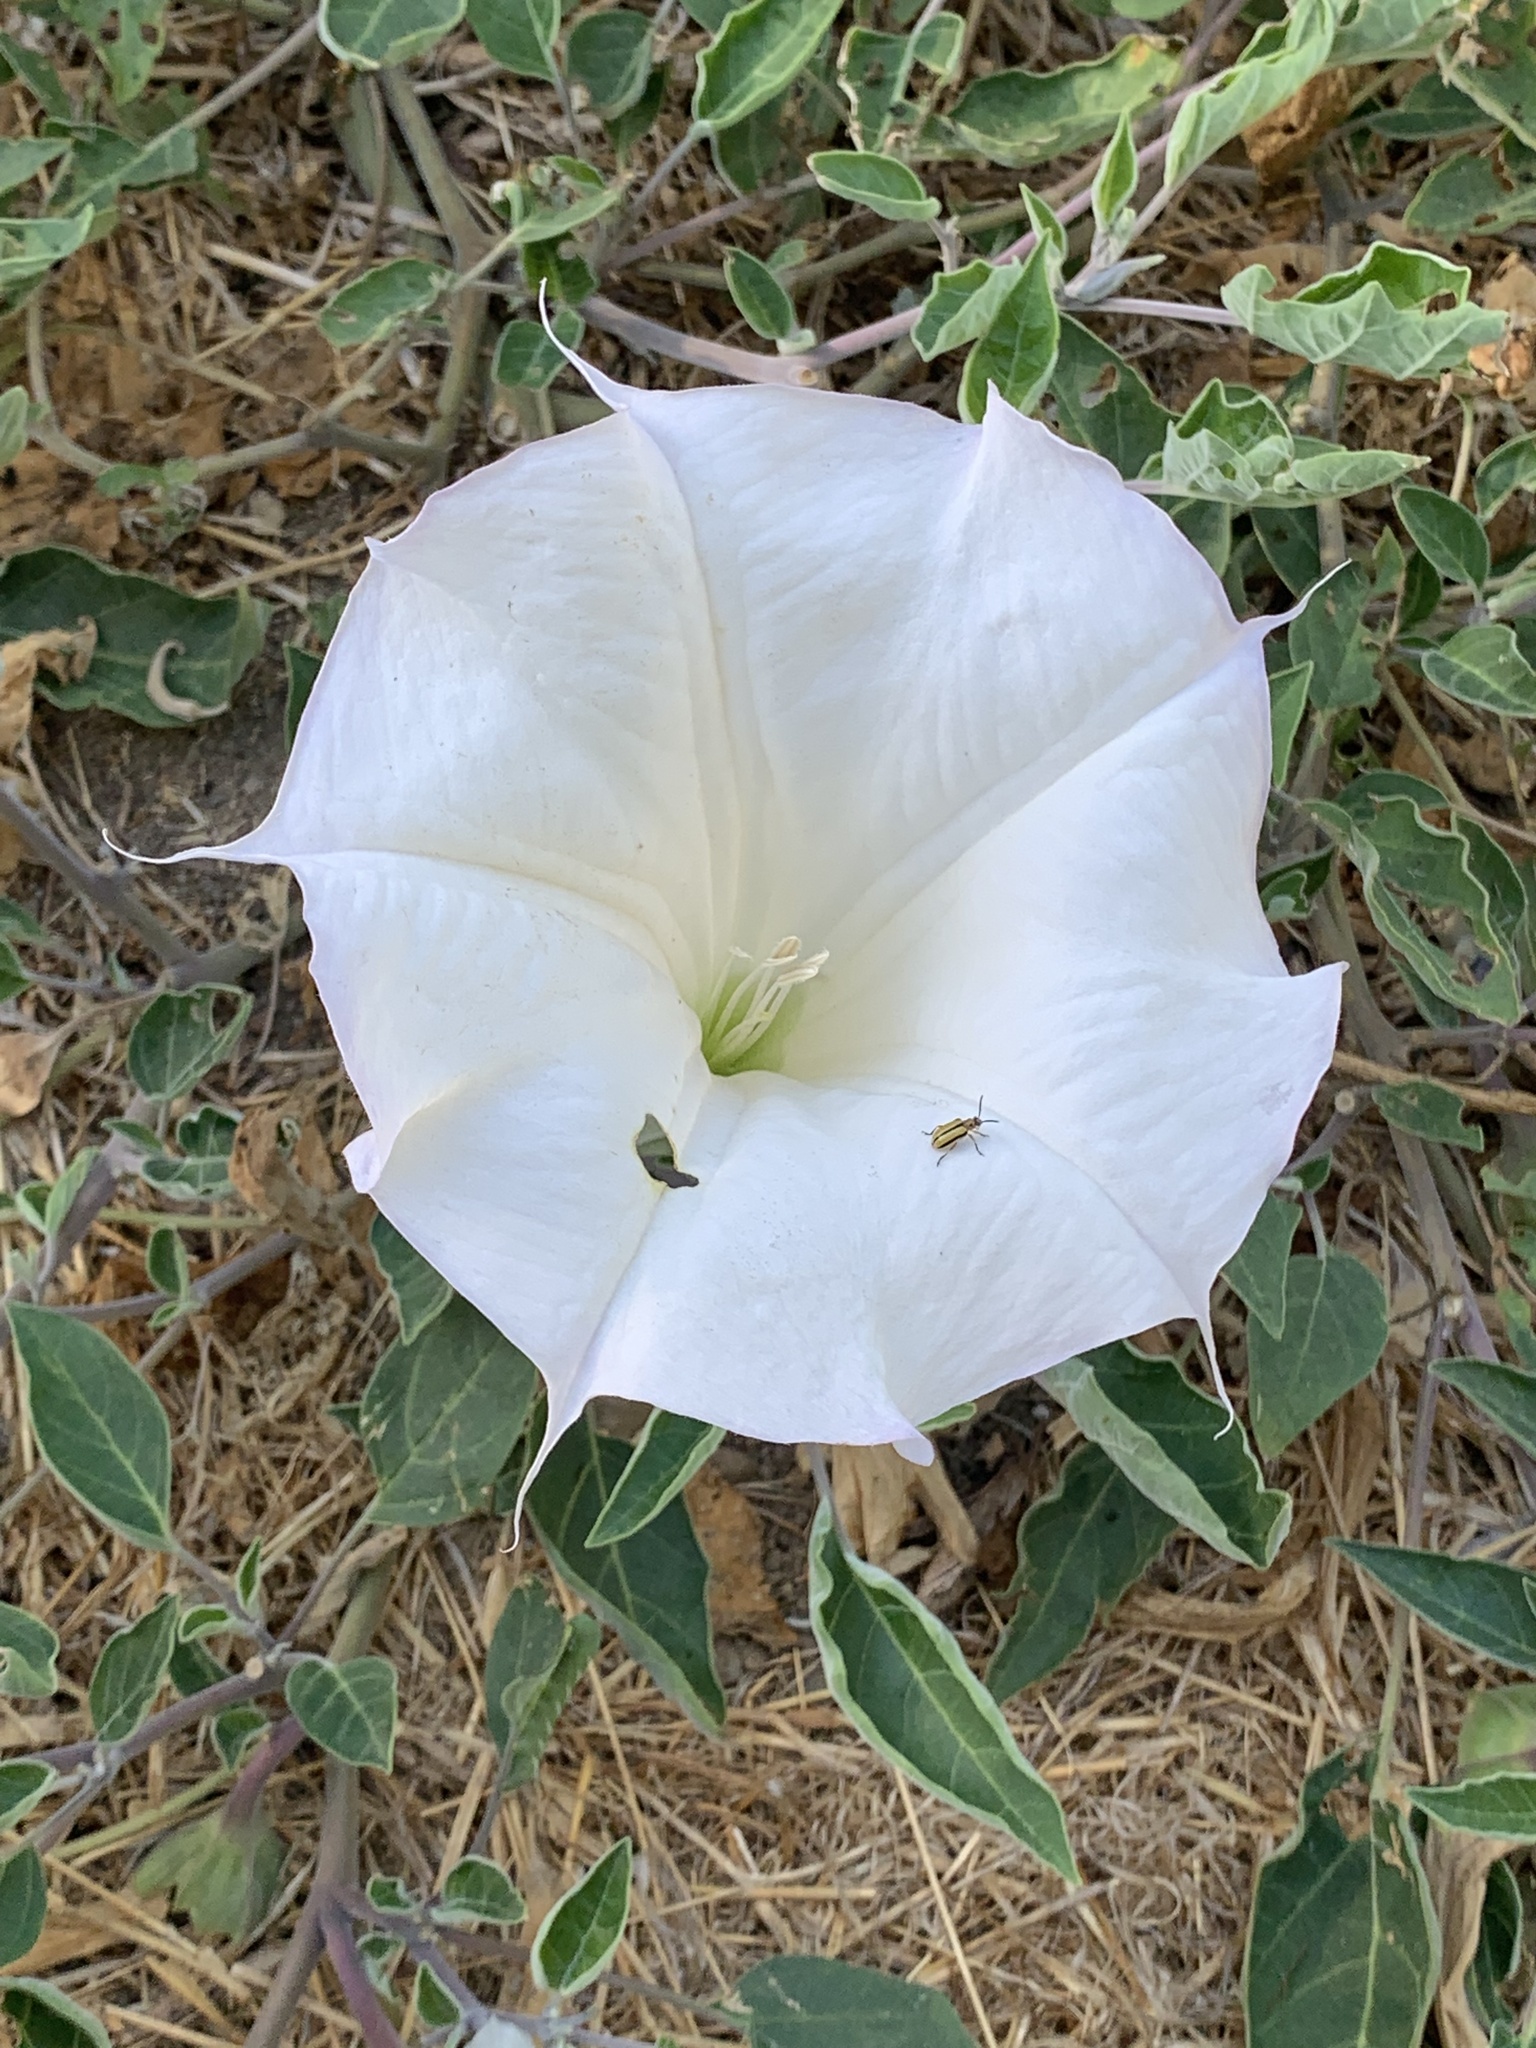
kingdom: Animalia
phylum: Arthropoda
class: Insecta
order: Coleoptera
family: Chrysomelidae
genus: Lema
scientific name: Lema daturaphila
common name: Leaf beetle
